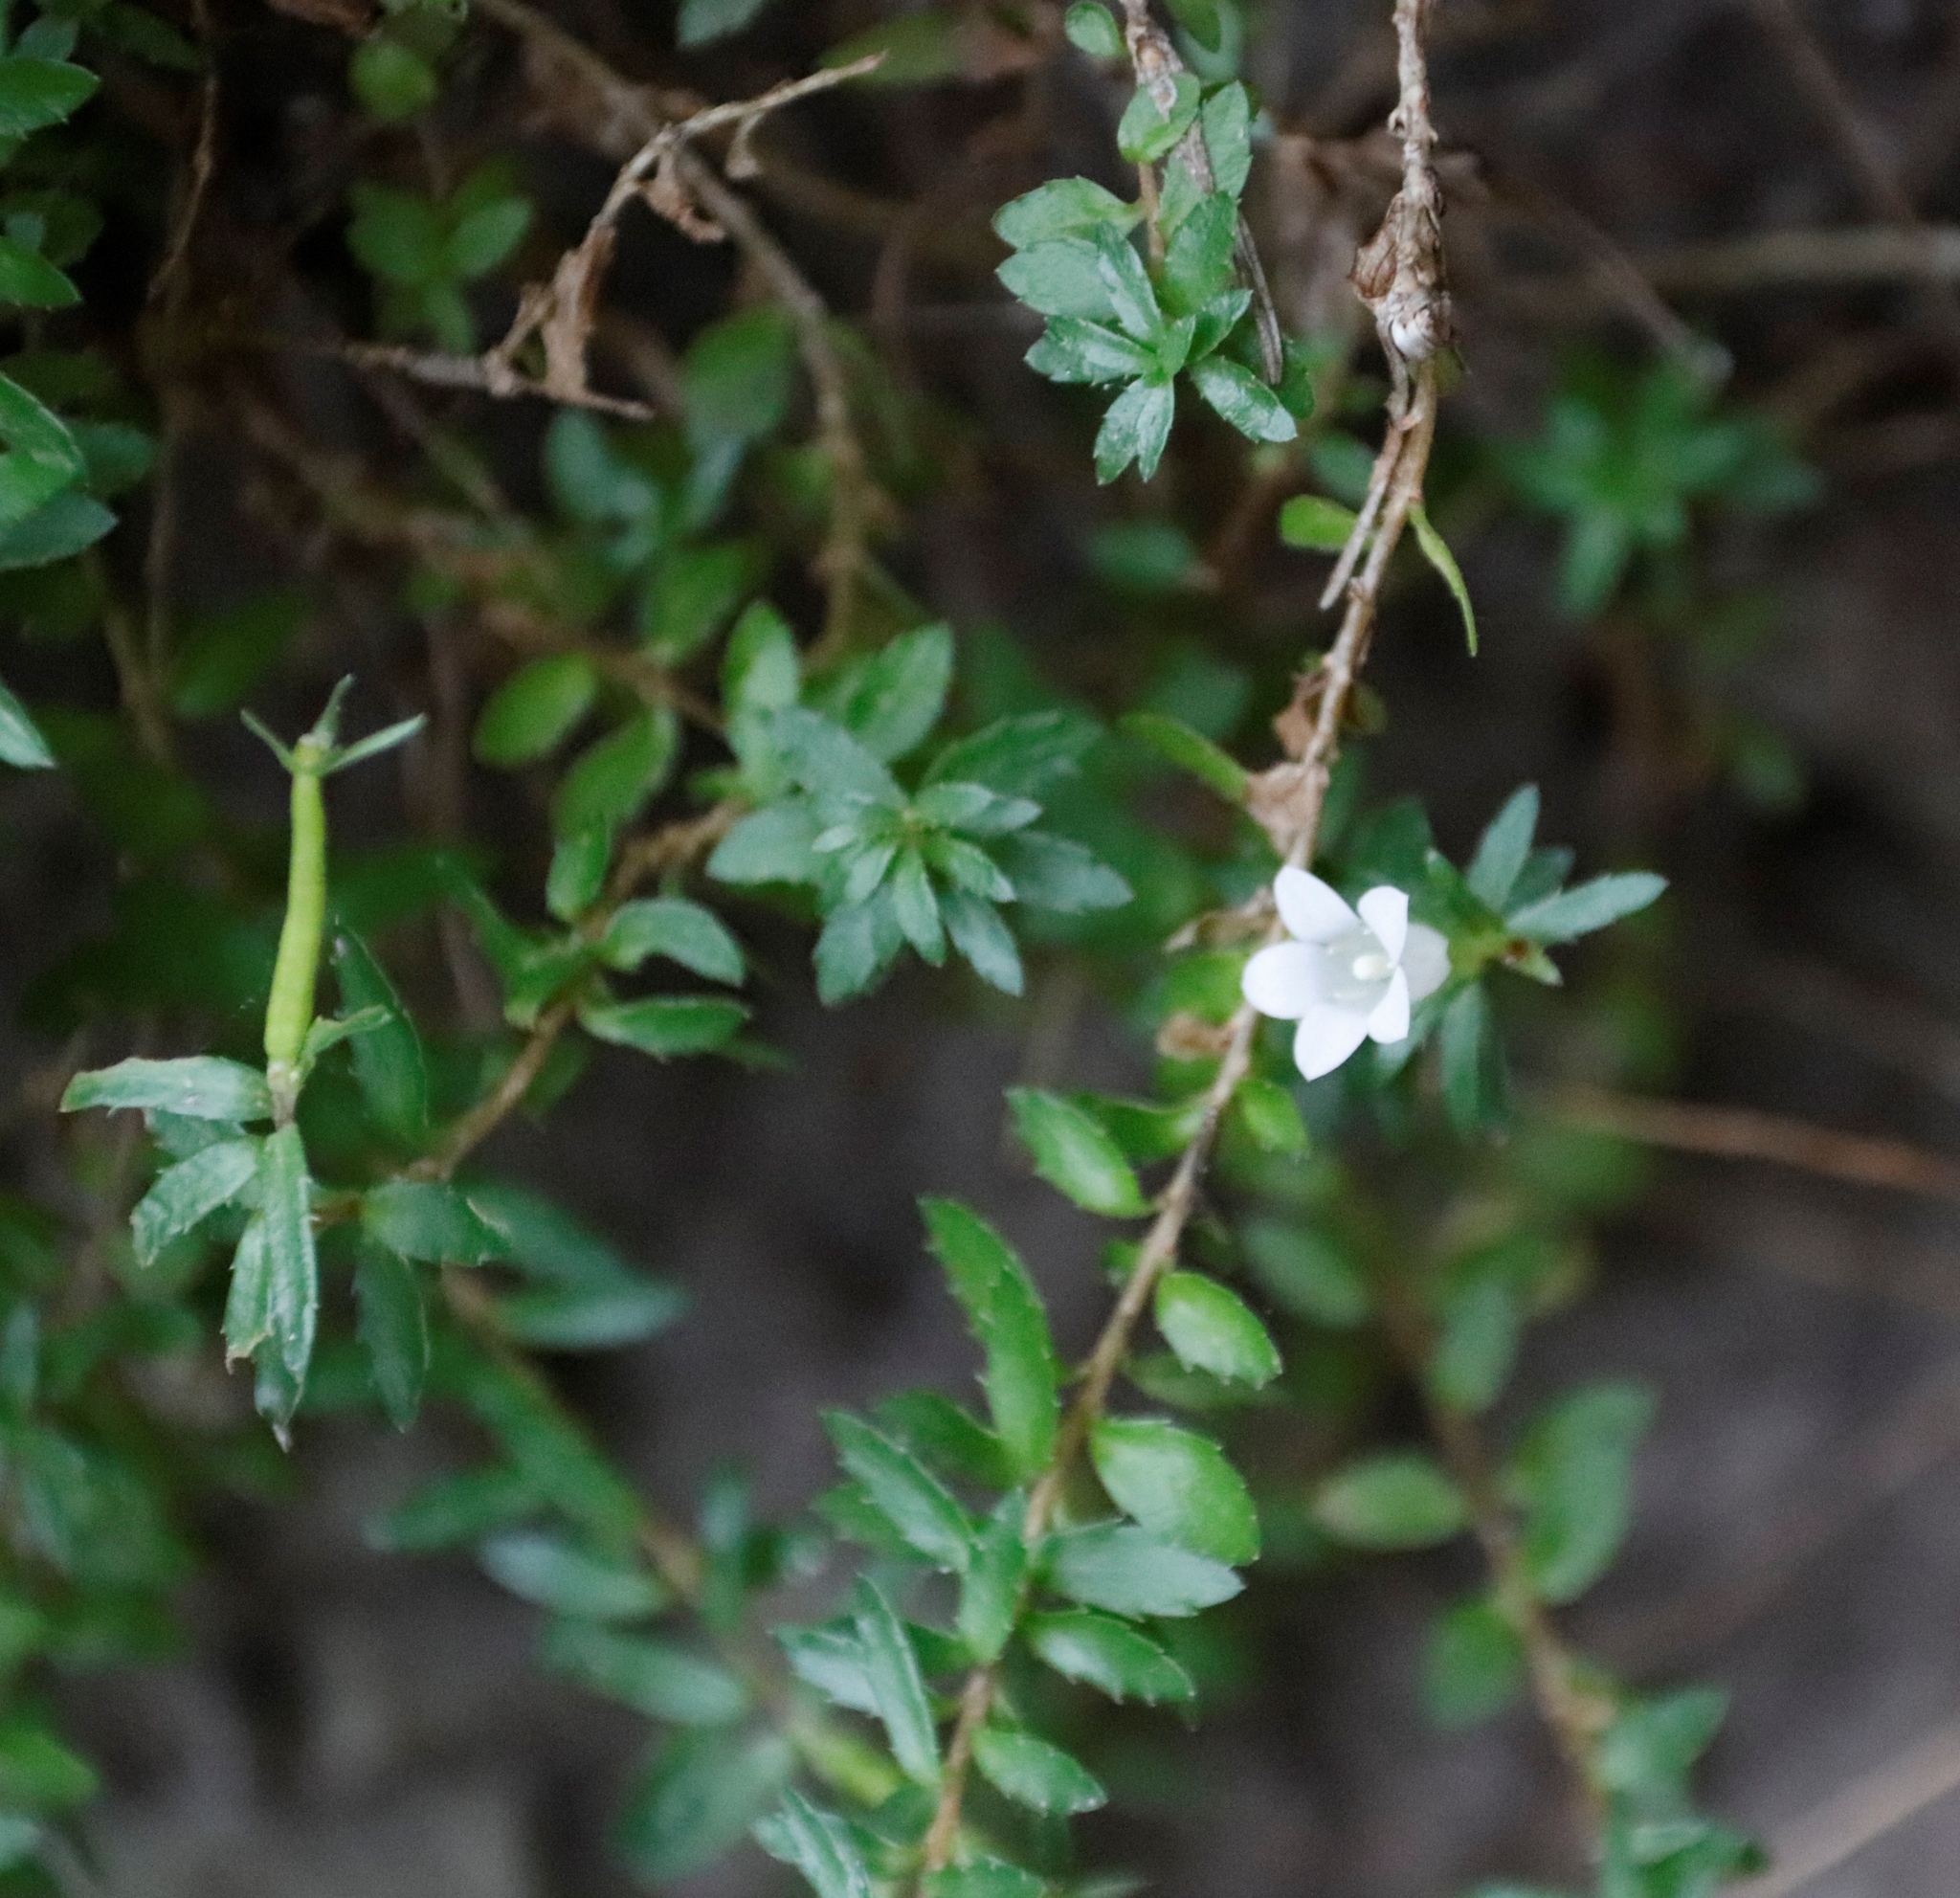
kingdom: Plantae
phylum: Tracheophyta
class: Magnoliopsida
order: Asterales
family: Campanulaceae
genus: Prismatocarpus
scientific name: Prismatocarpus nitidus
